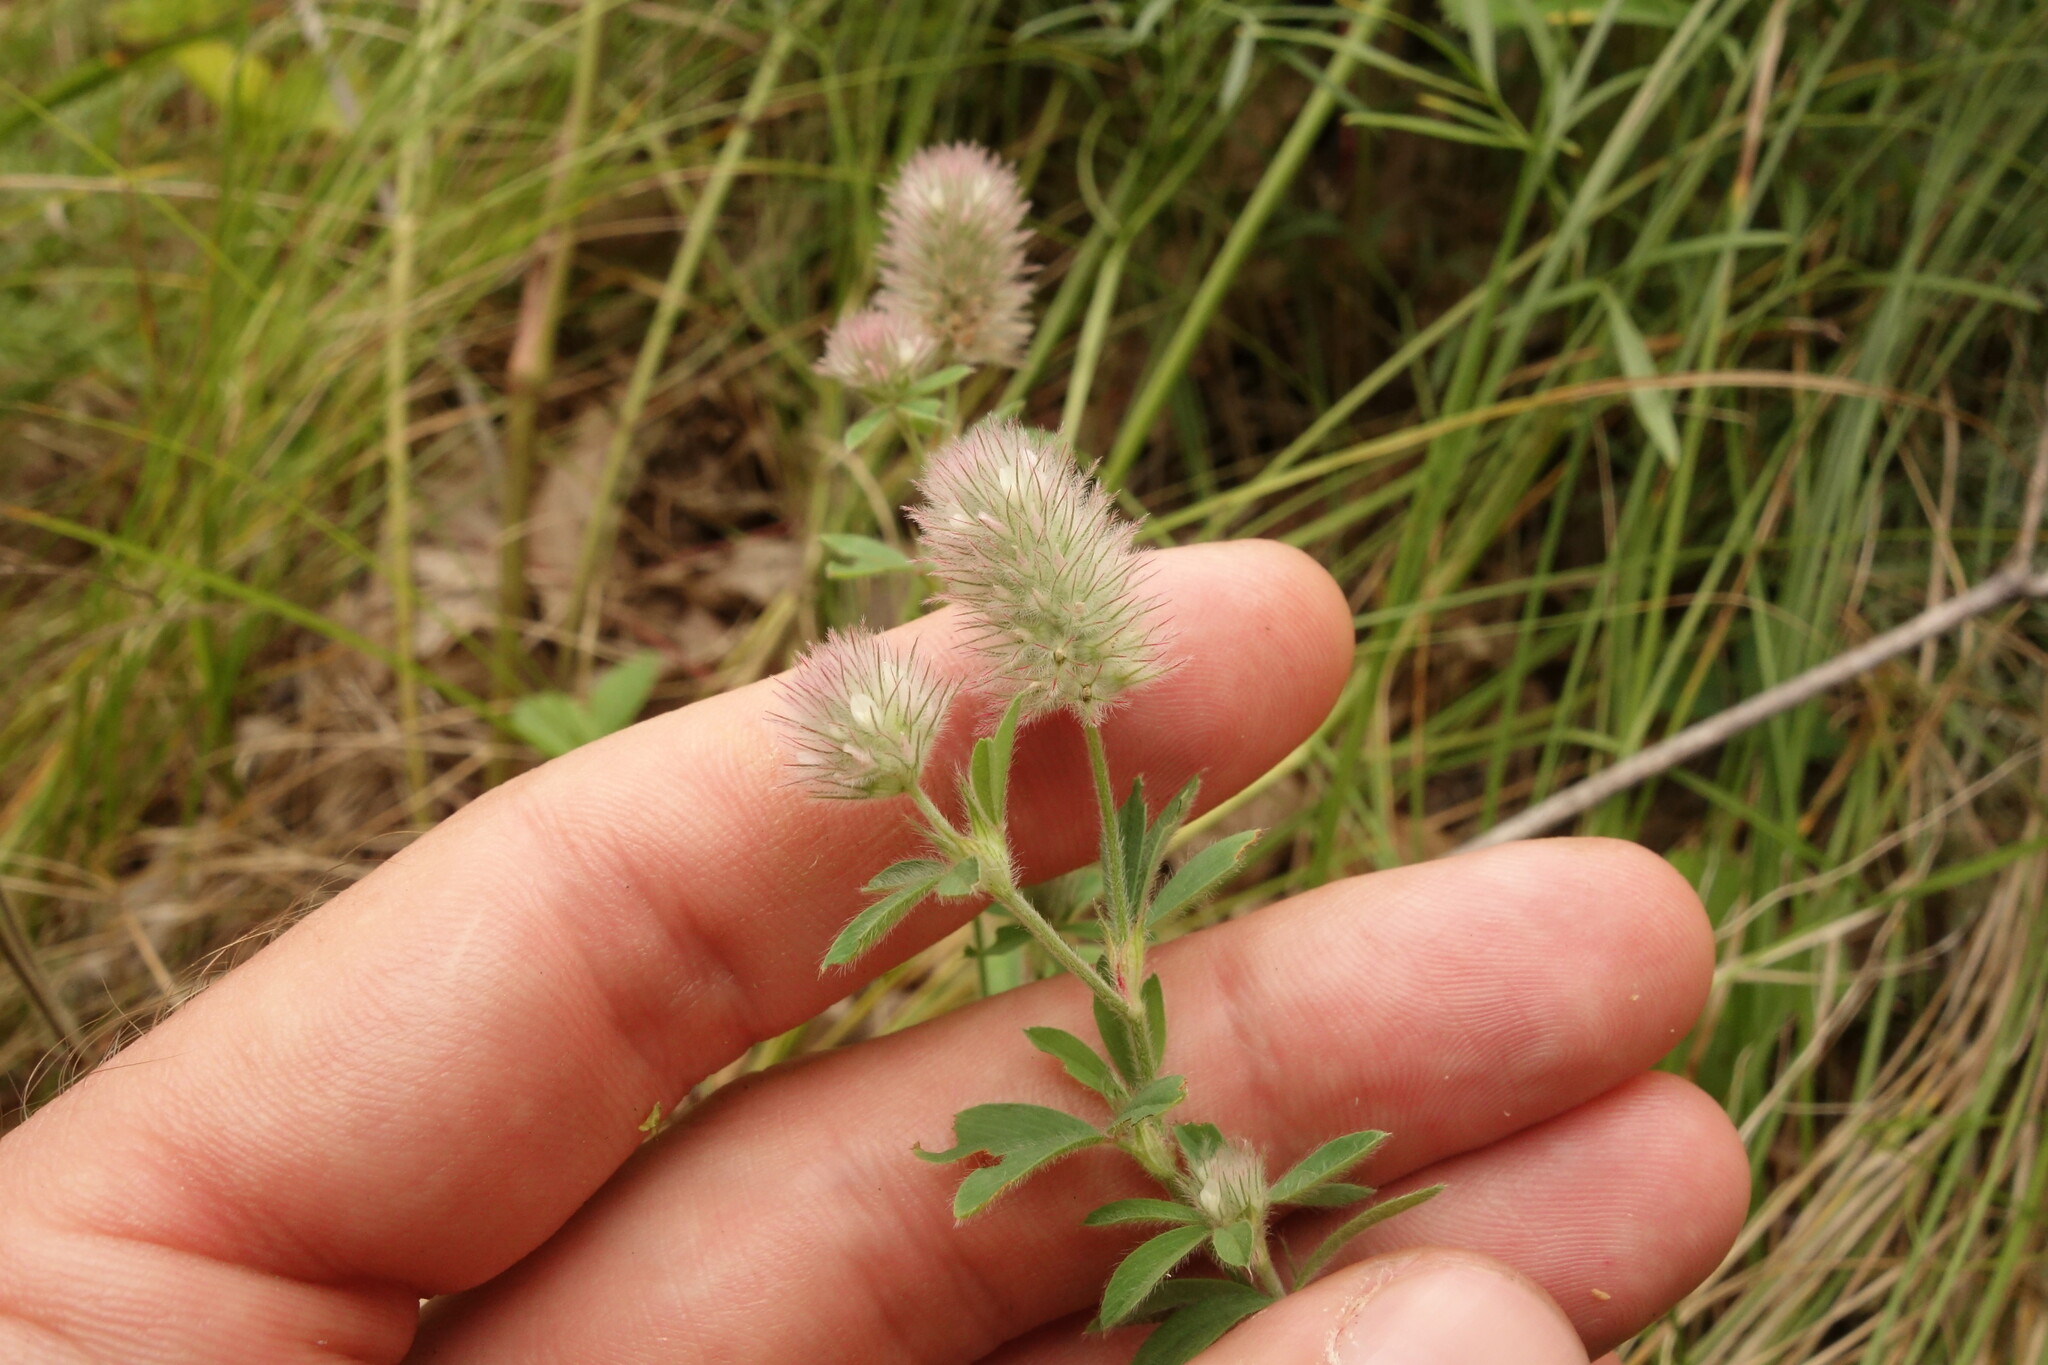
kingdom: Plantae
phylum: Tracheophyta
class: Magnoliopsida
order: Fabales
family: Fabaceae
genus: Trifolium
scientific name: Trifolium arvense
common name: Hare's-foot clover
